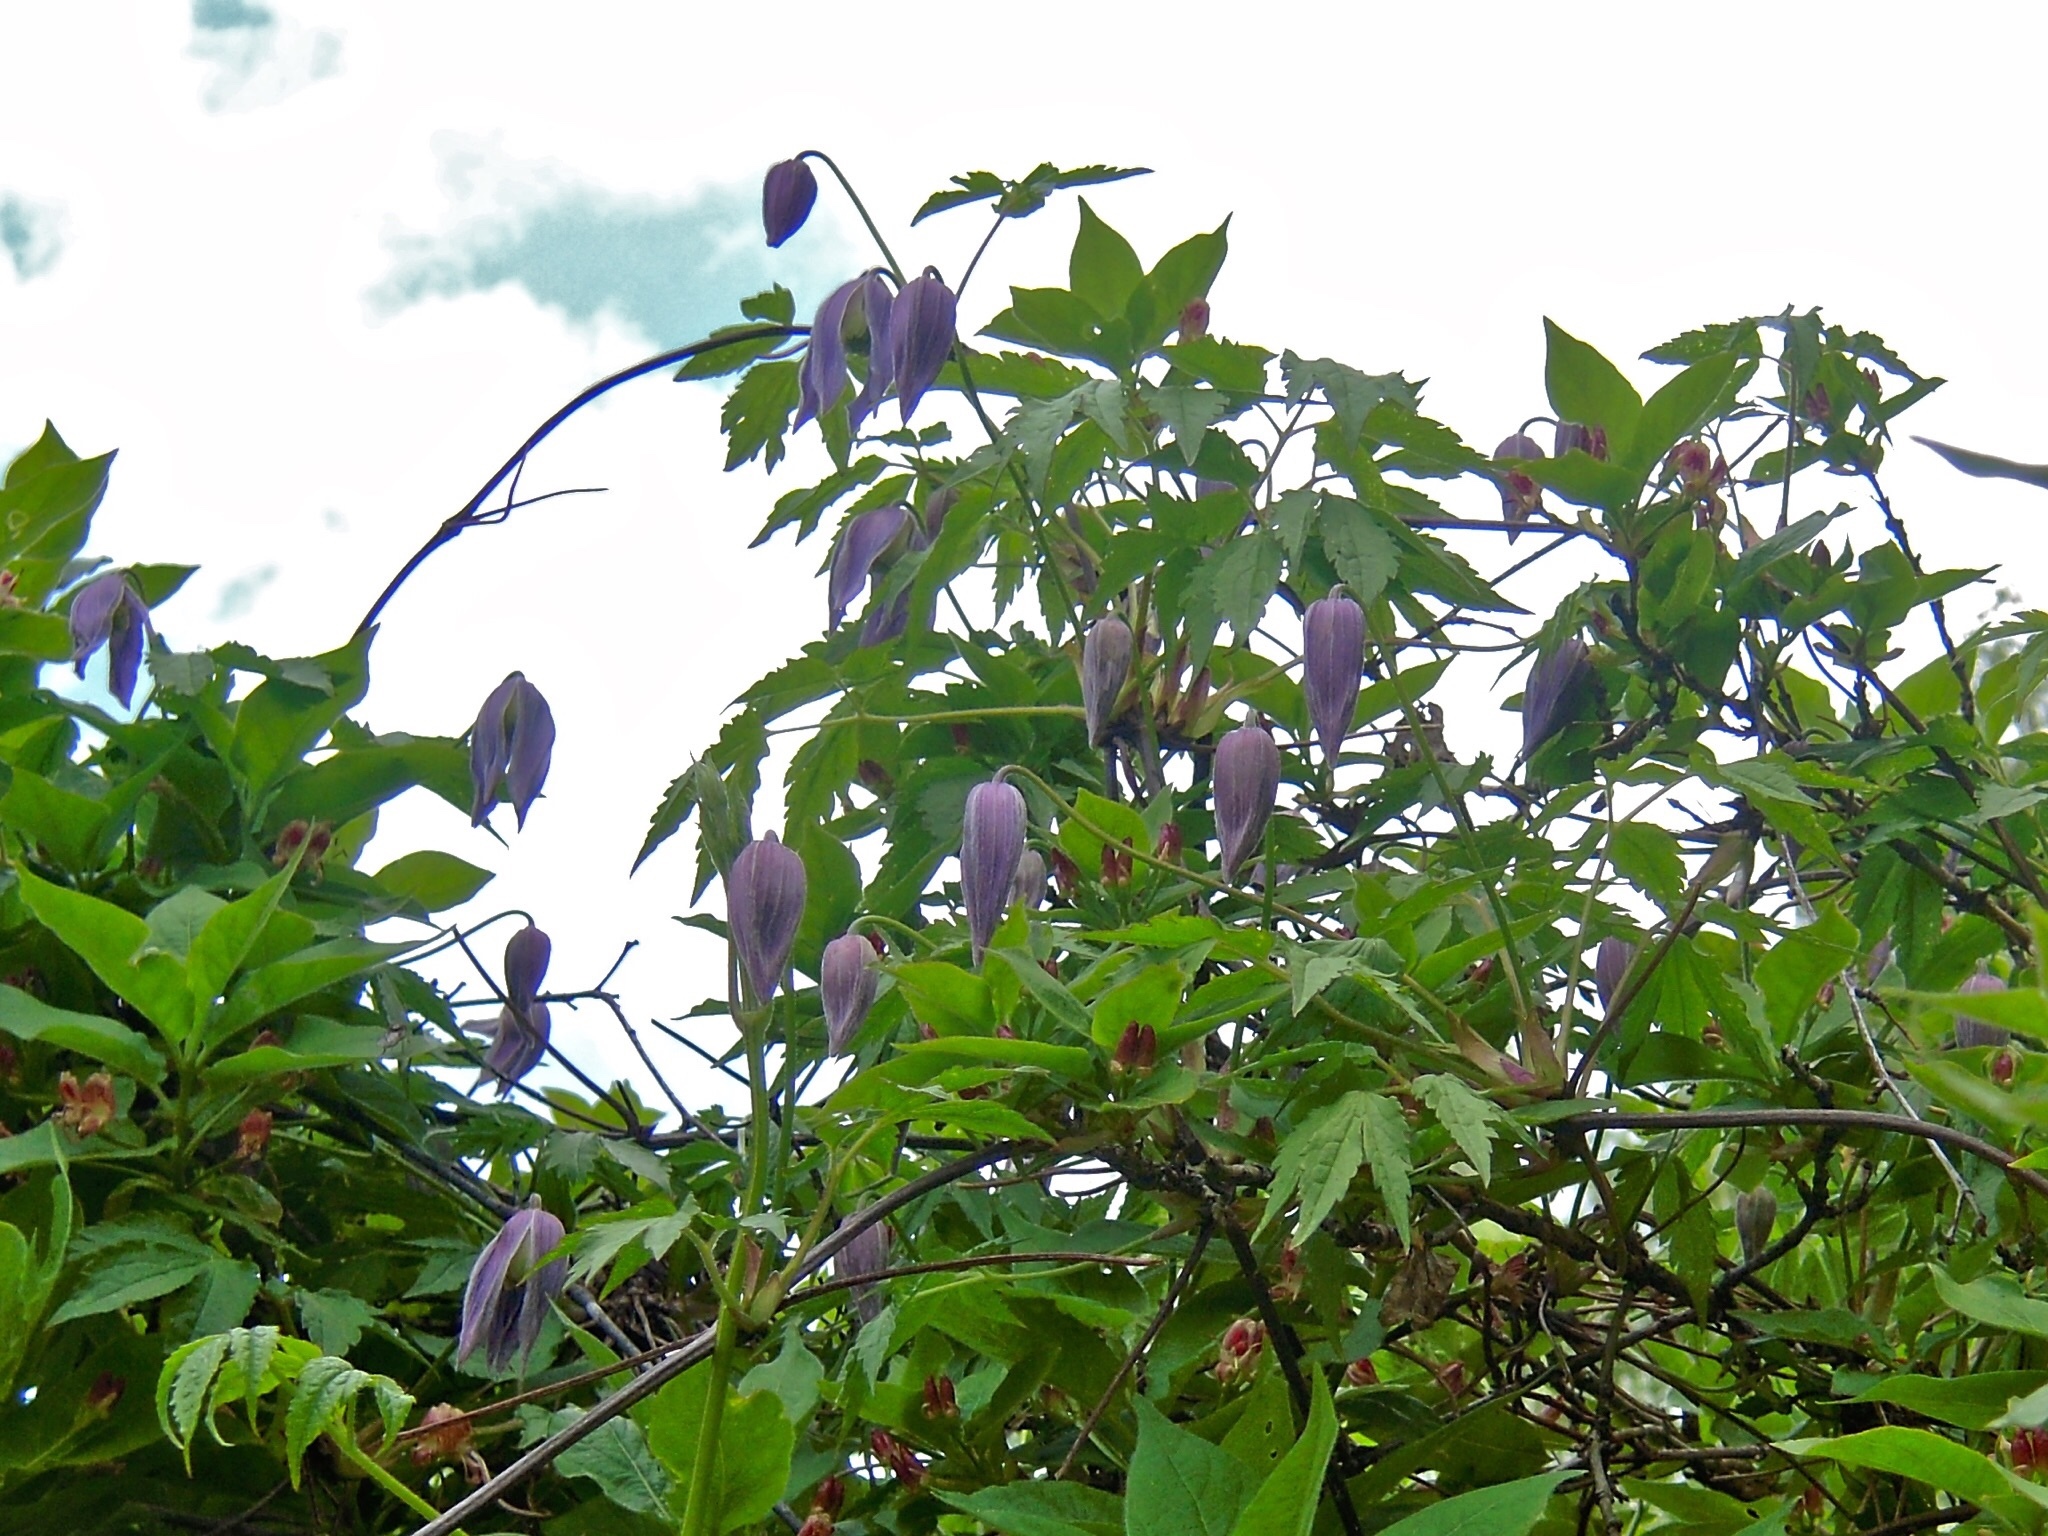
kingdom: Plantae
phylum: Tracheophyta
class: Magnoliopsida
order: Ranunculales
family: Ranunculaceae
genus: Clematis
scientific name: Clematis alpina
